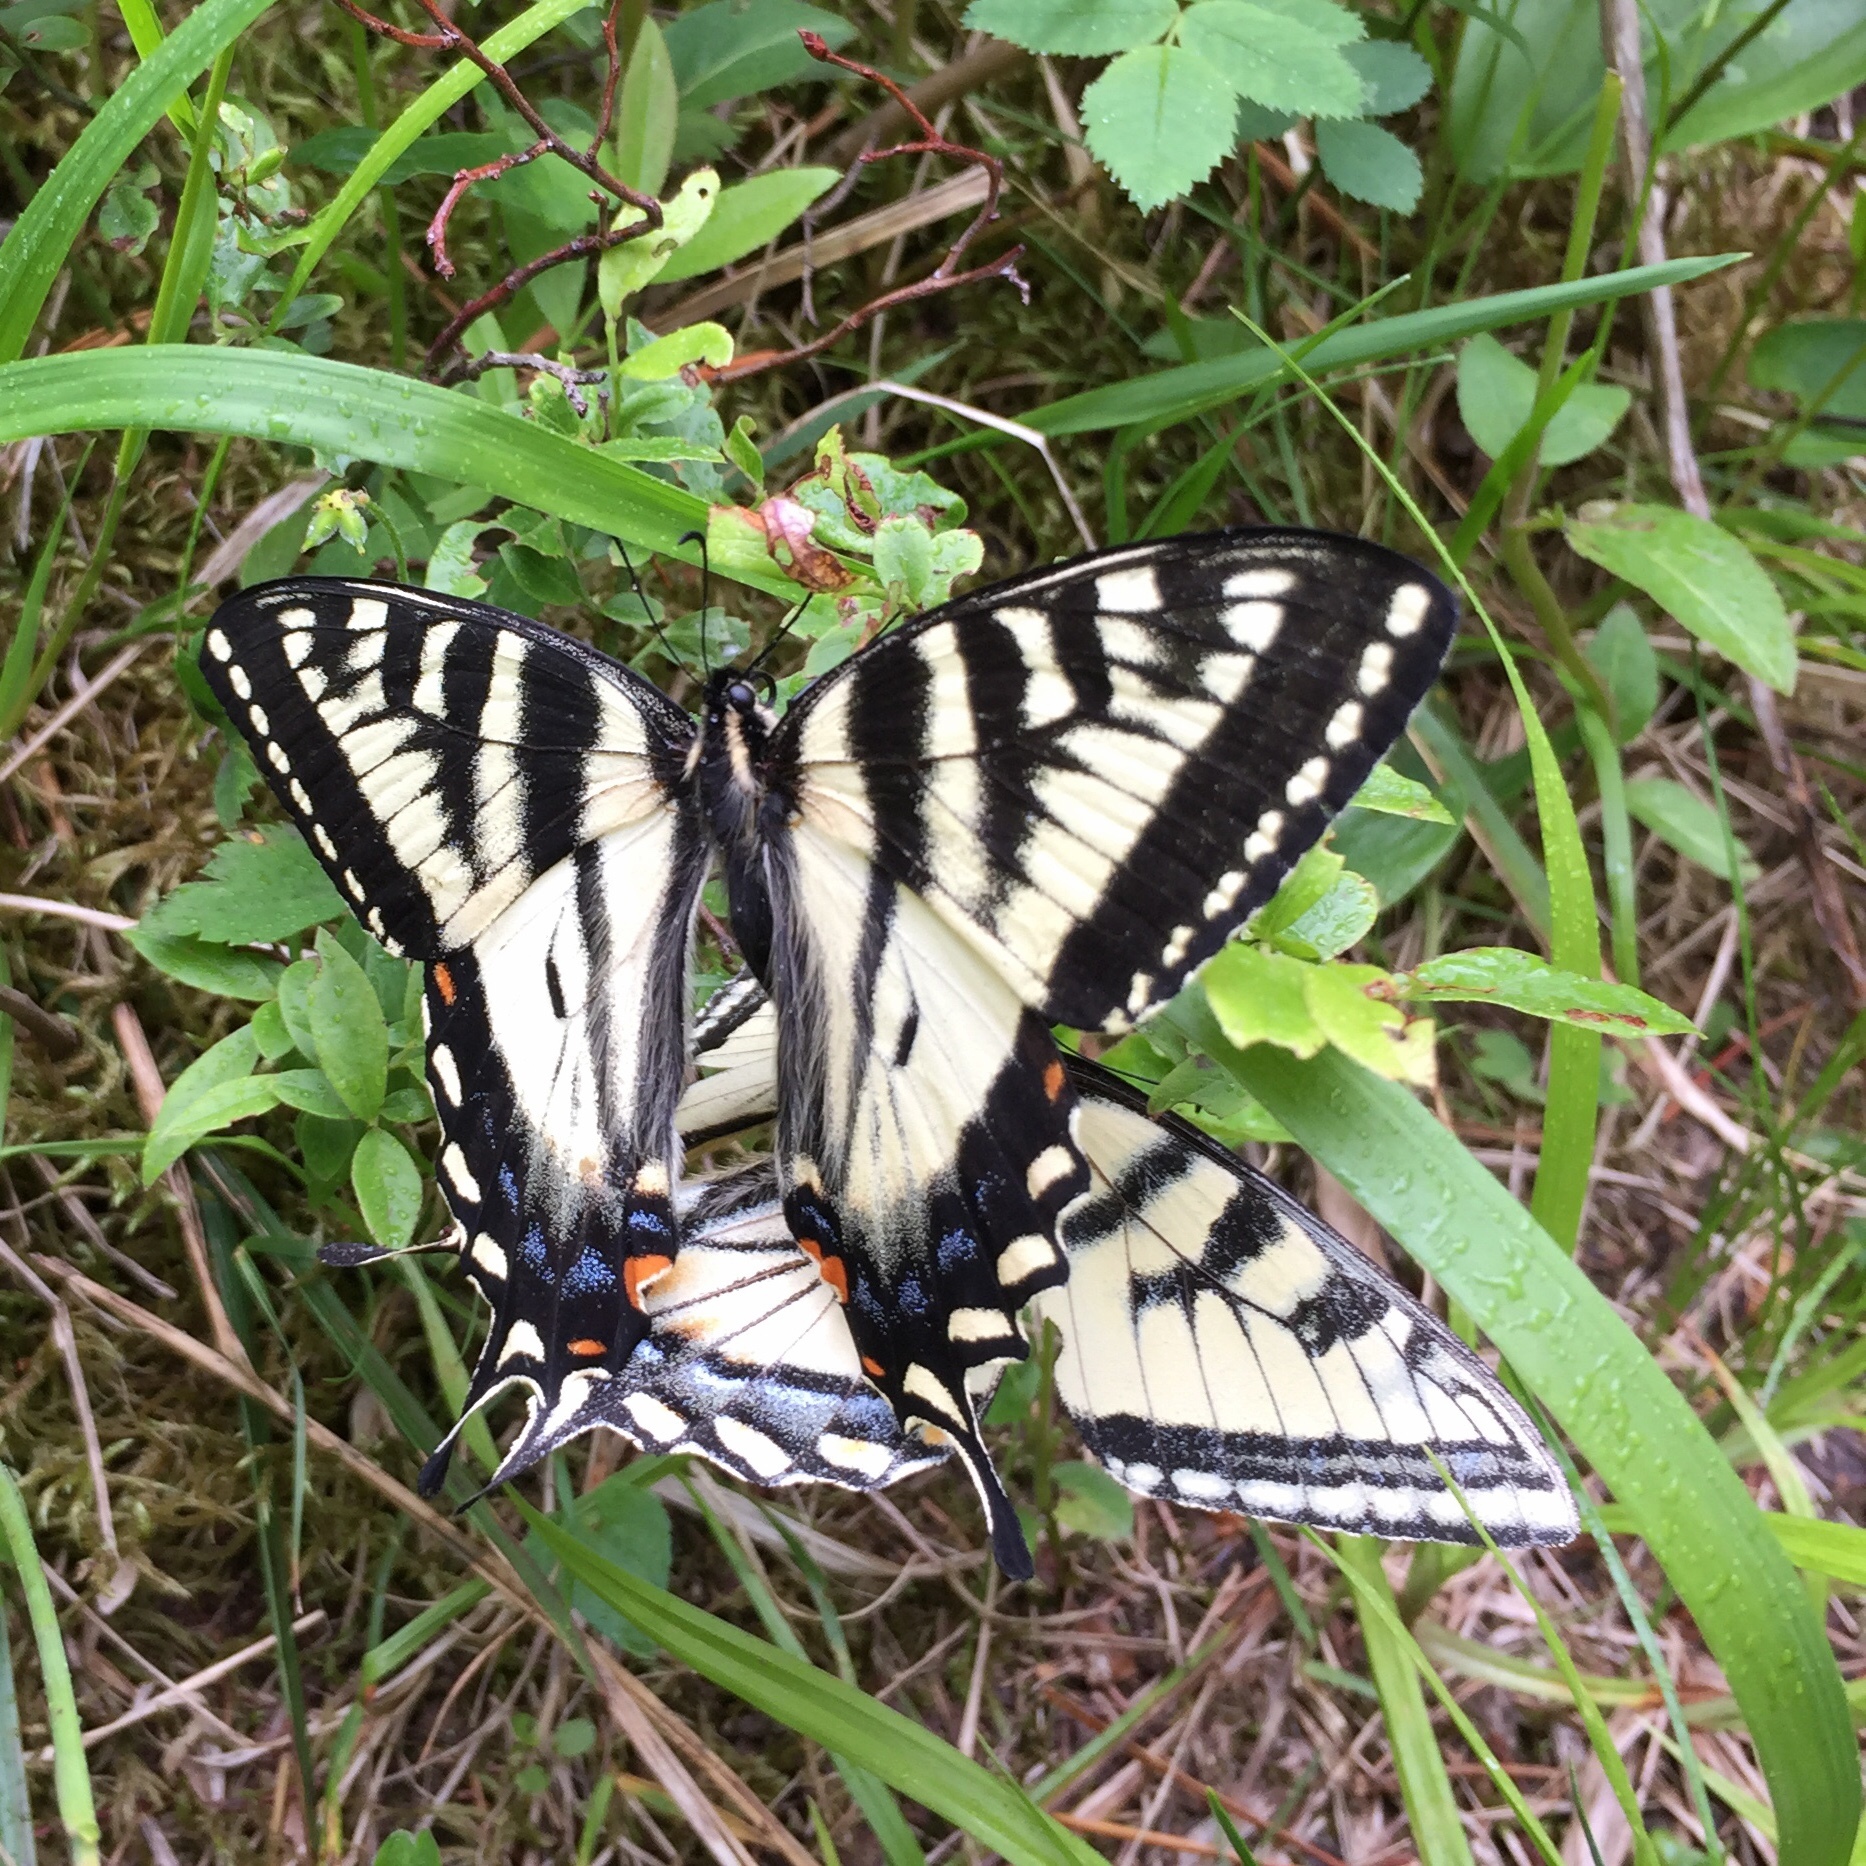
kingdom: Animalia
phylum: Arthropoda
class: Insecta
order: Lepidoptera
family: Papilionidae
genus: Papilio
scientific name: Papilio canadensis
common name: Canadian tiger swallowtail
